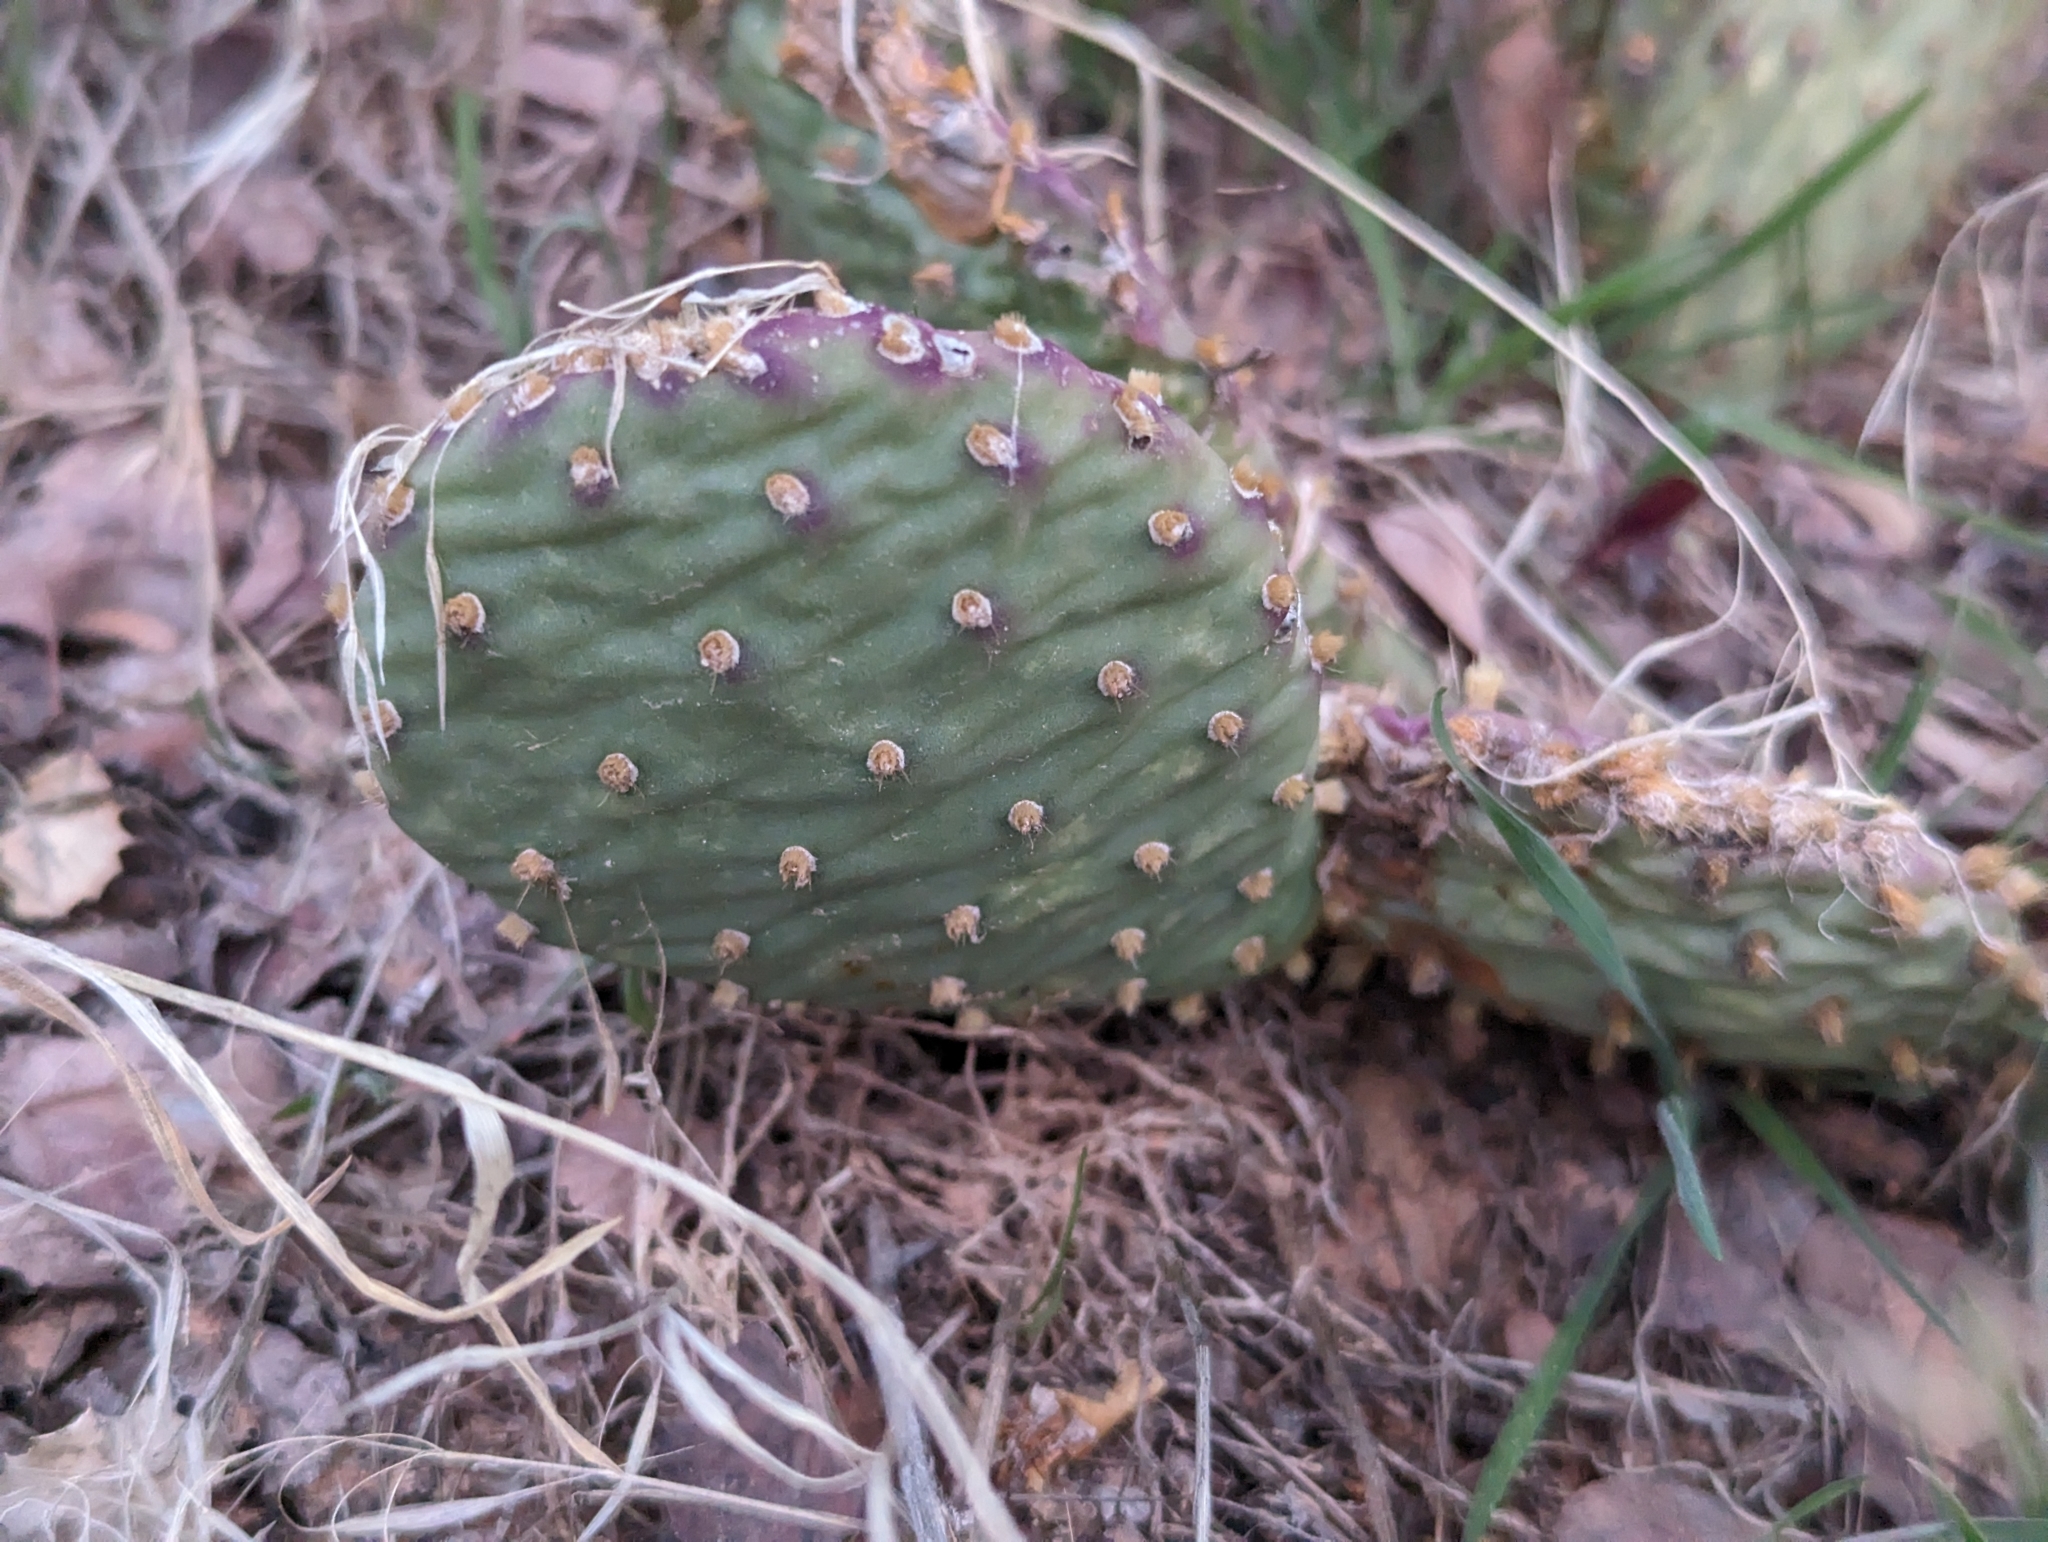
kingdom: Plantae
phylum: Tracheophyta
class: Magnoliopsida
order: Caryophyllales
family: Cactaceae
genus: Opuntia
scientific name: Opuntia aurea
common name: Golden prickly-pear
